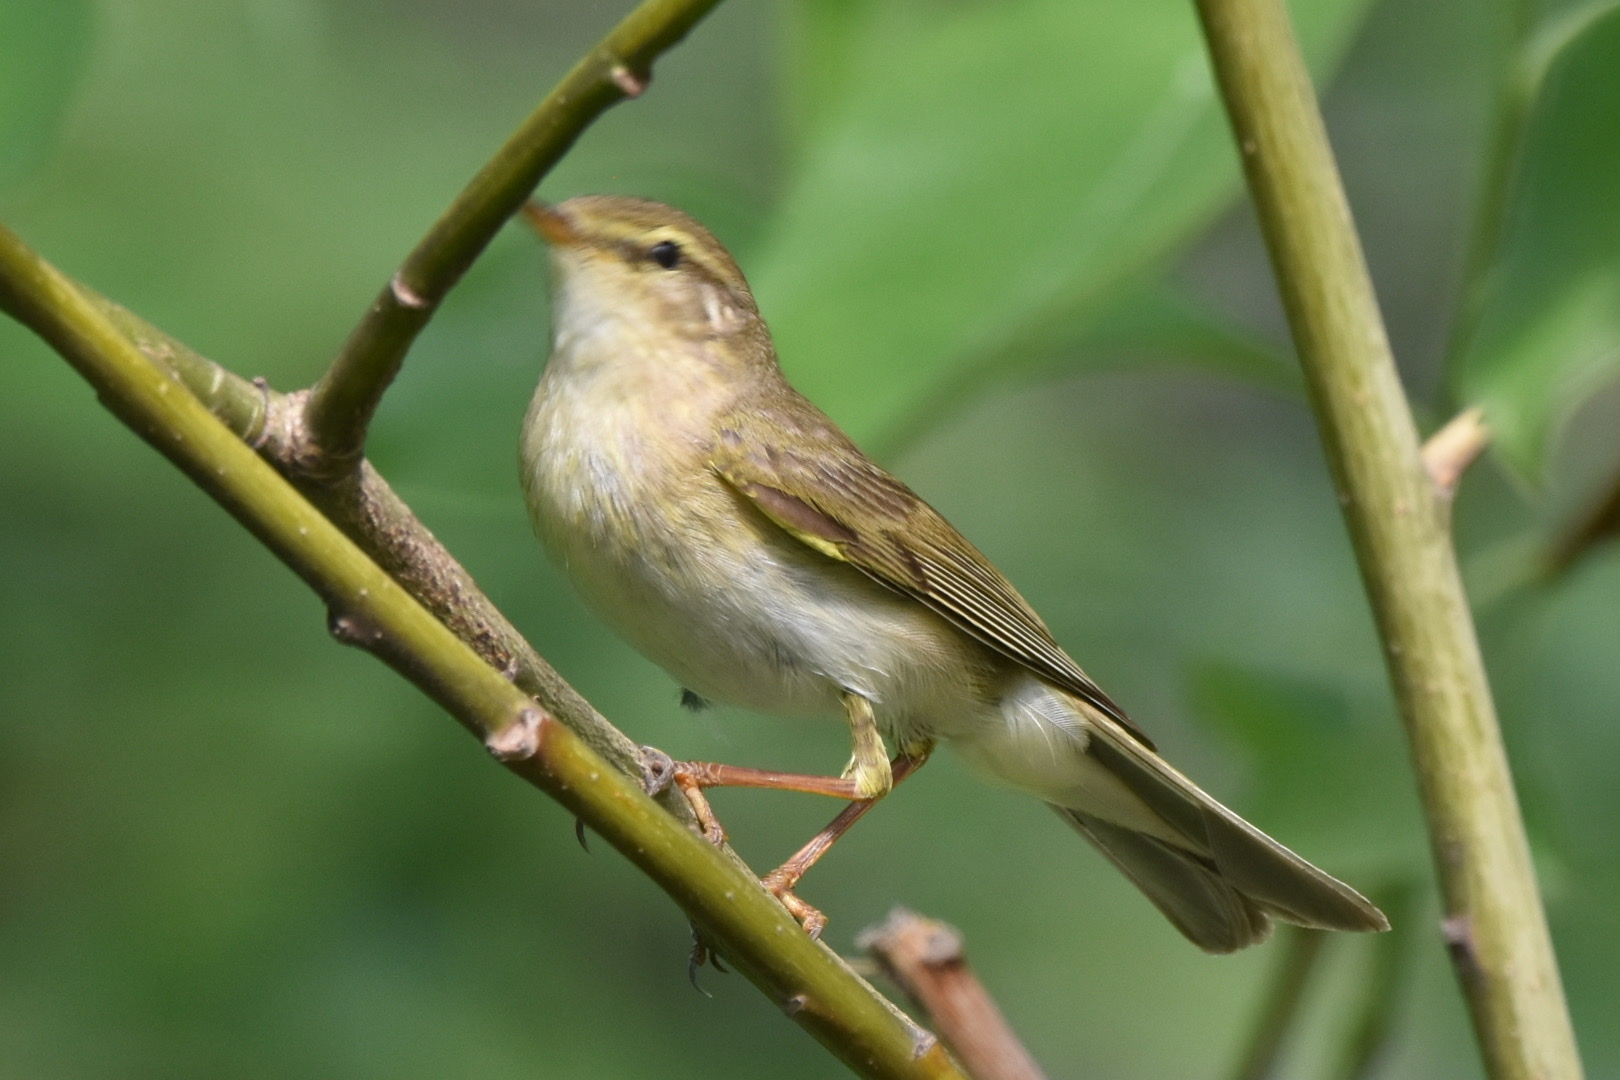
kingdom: Animalia
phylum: Chordata
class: Aves
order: Passeriformes
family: Phylloscopidae
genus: Phylloscopus
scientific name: Phylloscopus trochilus
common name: Willow warbler
